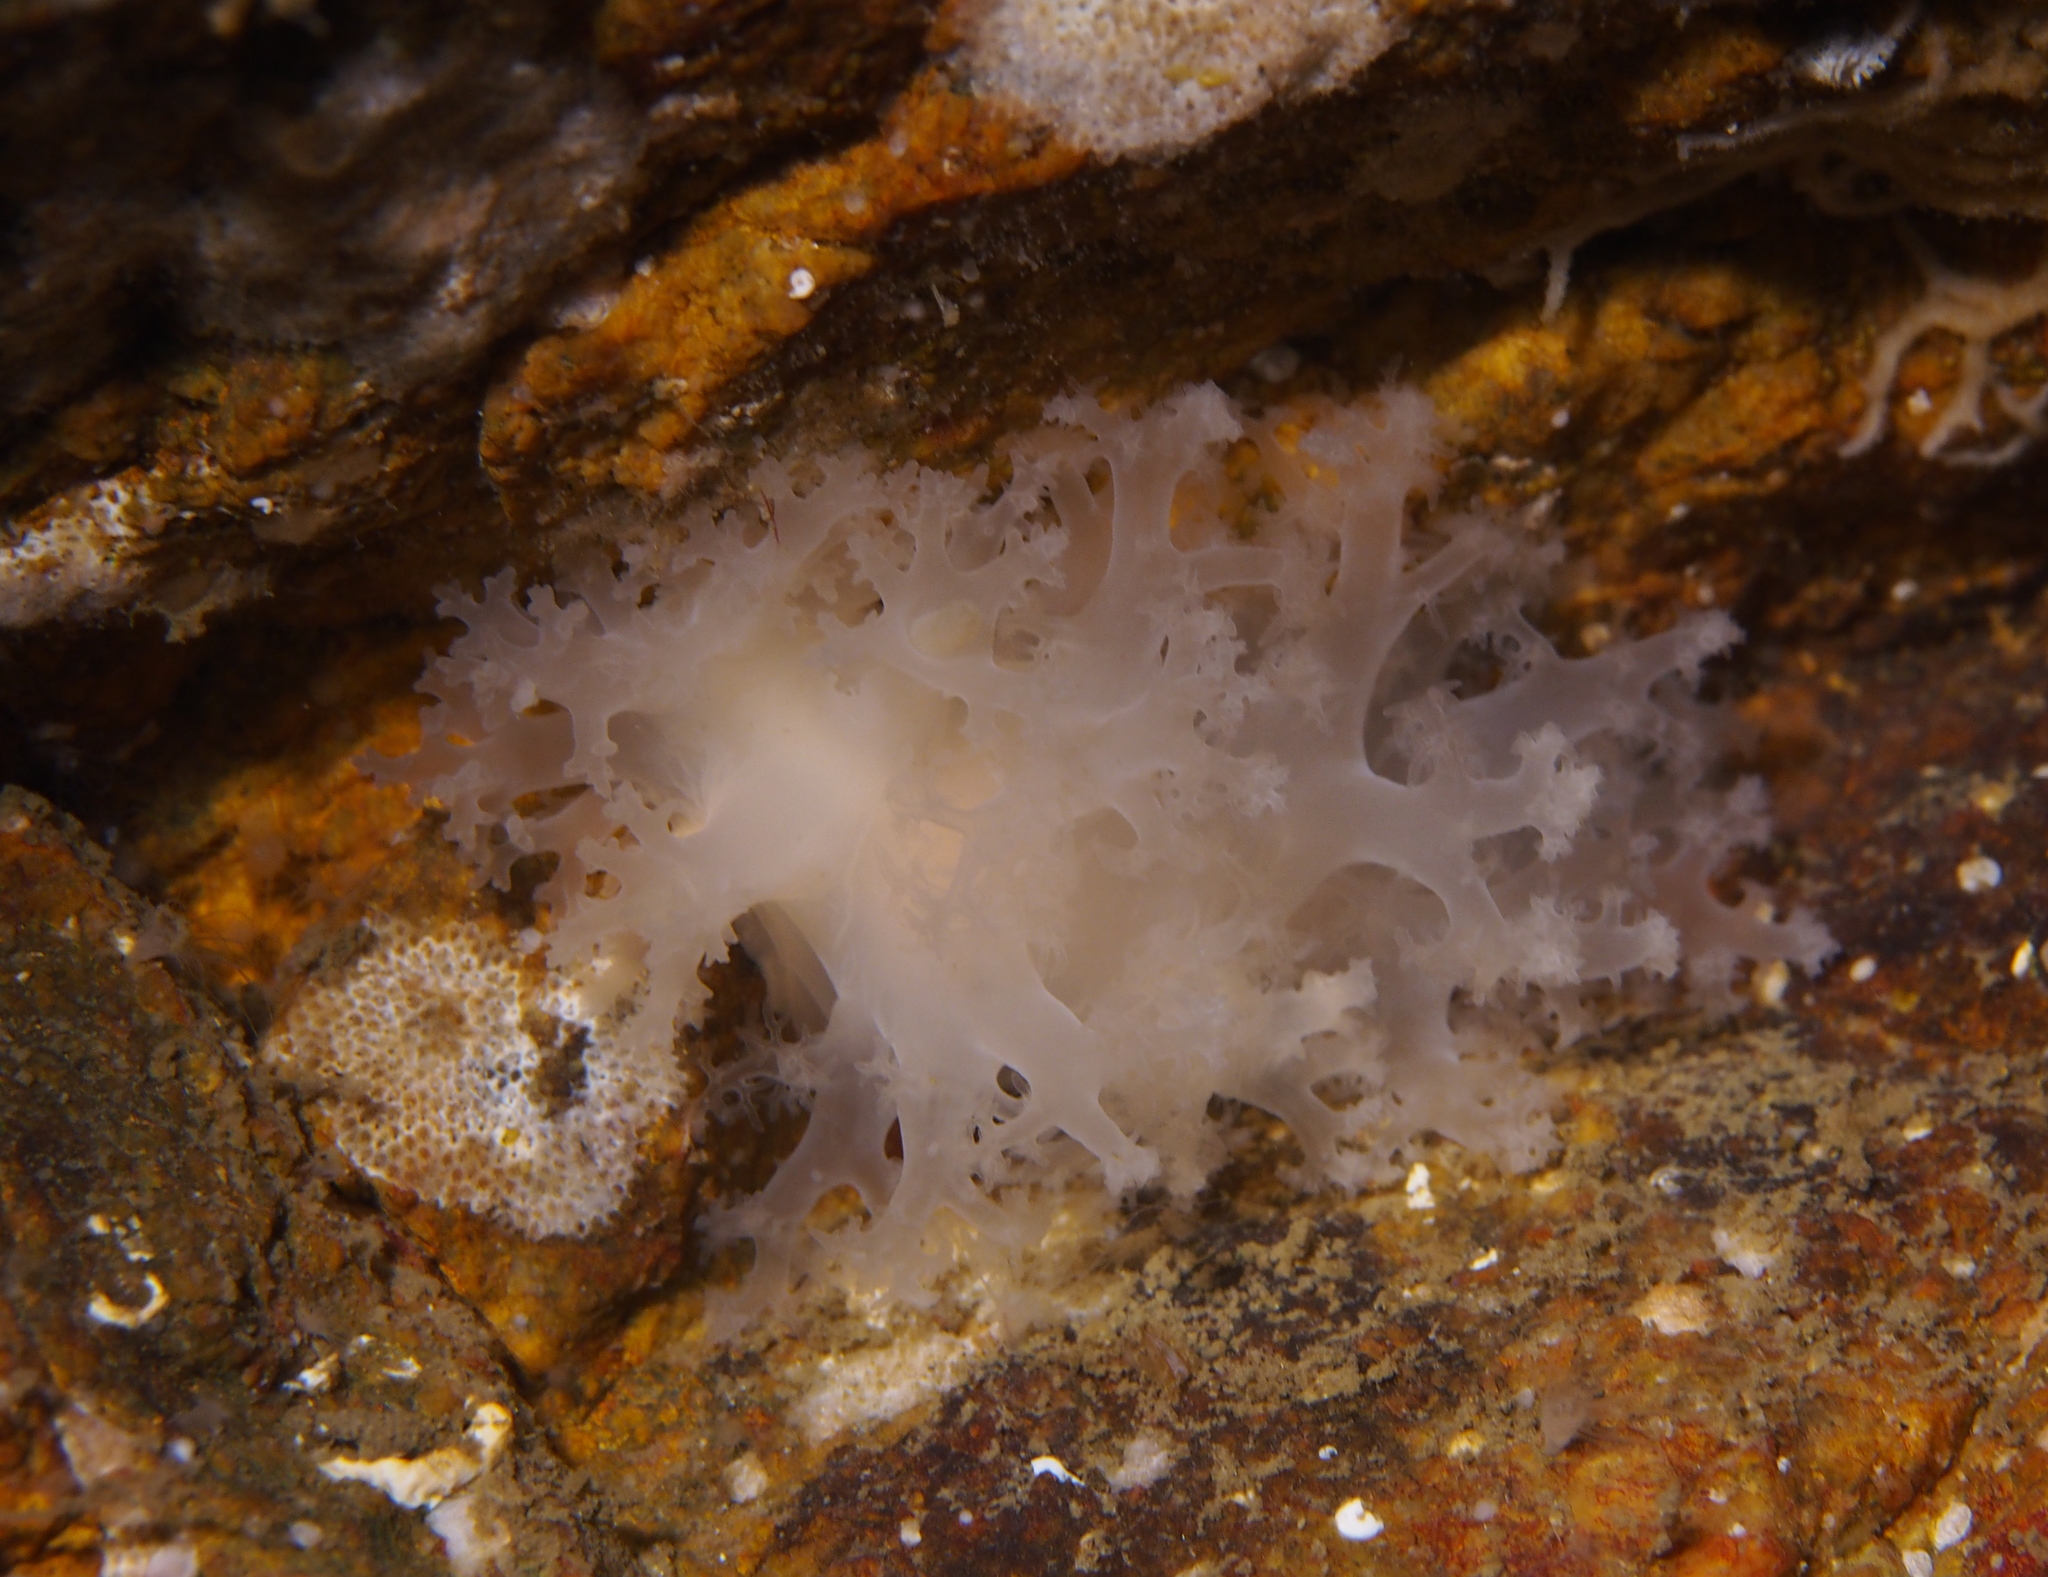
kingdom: Animalia
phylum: Mollusca
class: Gastropoda
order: Nudibranchia
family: Dendronotidae
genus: Dendronotus
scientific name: Dendronotus lacteus
